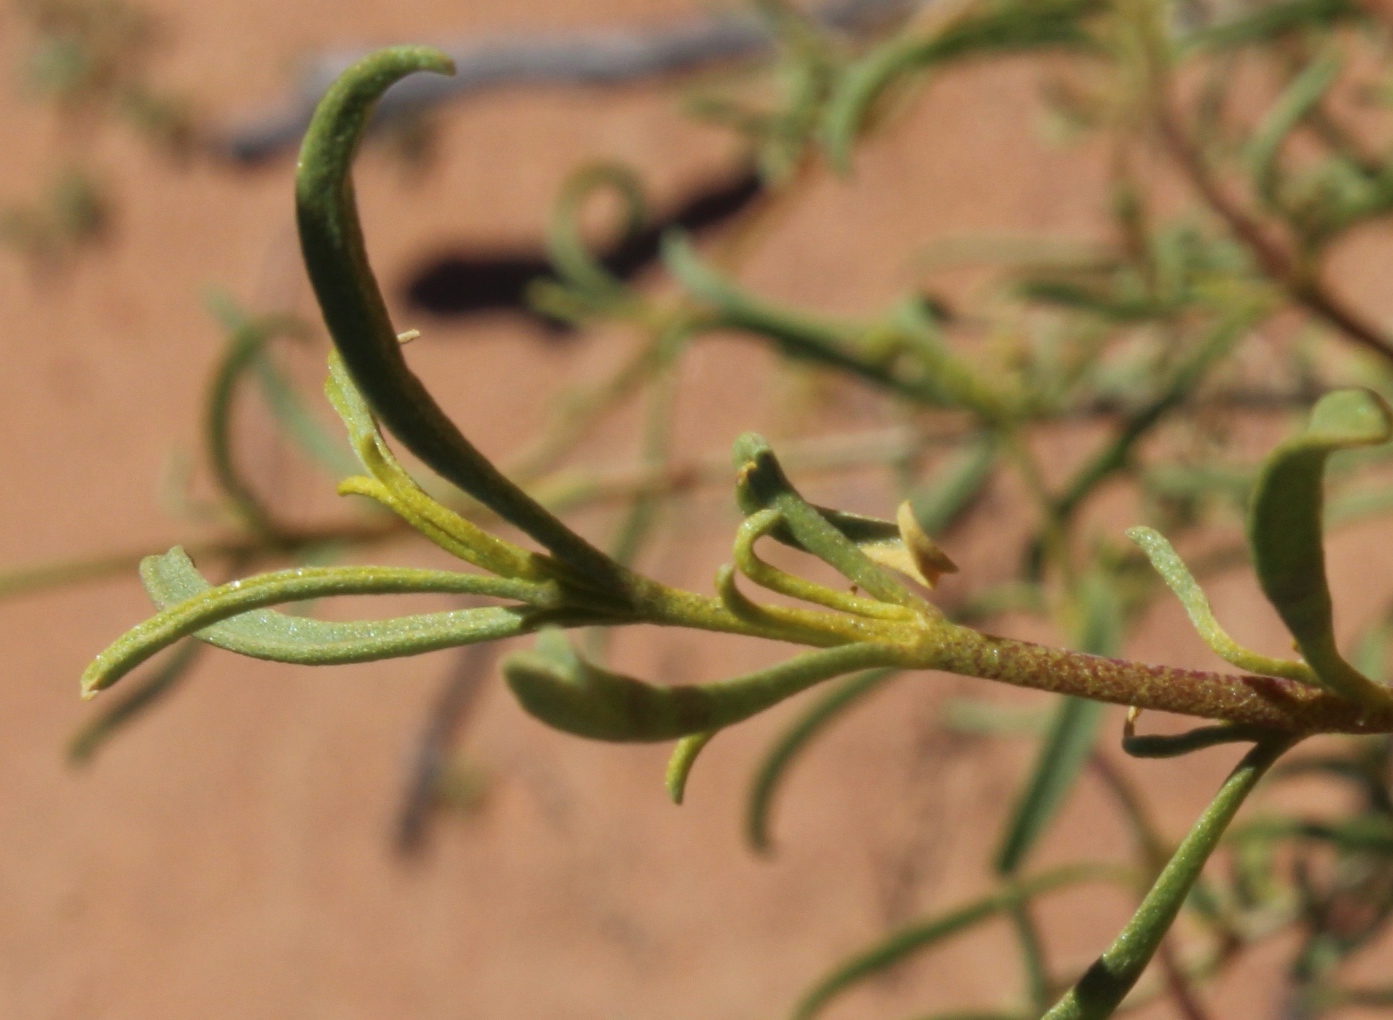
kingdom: Plantae
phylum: Tracheophyta
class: Magnoliopsida
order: Caryophyllales
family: Aizoaceae
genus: Aizoon
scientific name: Aizoon africanum
